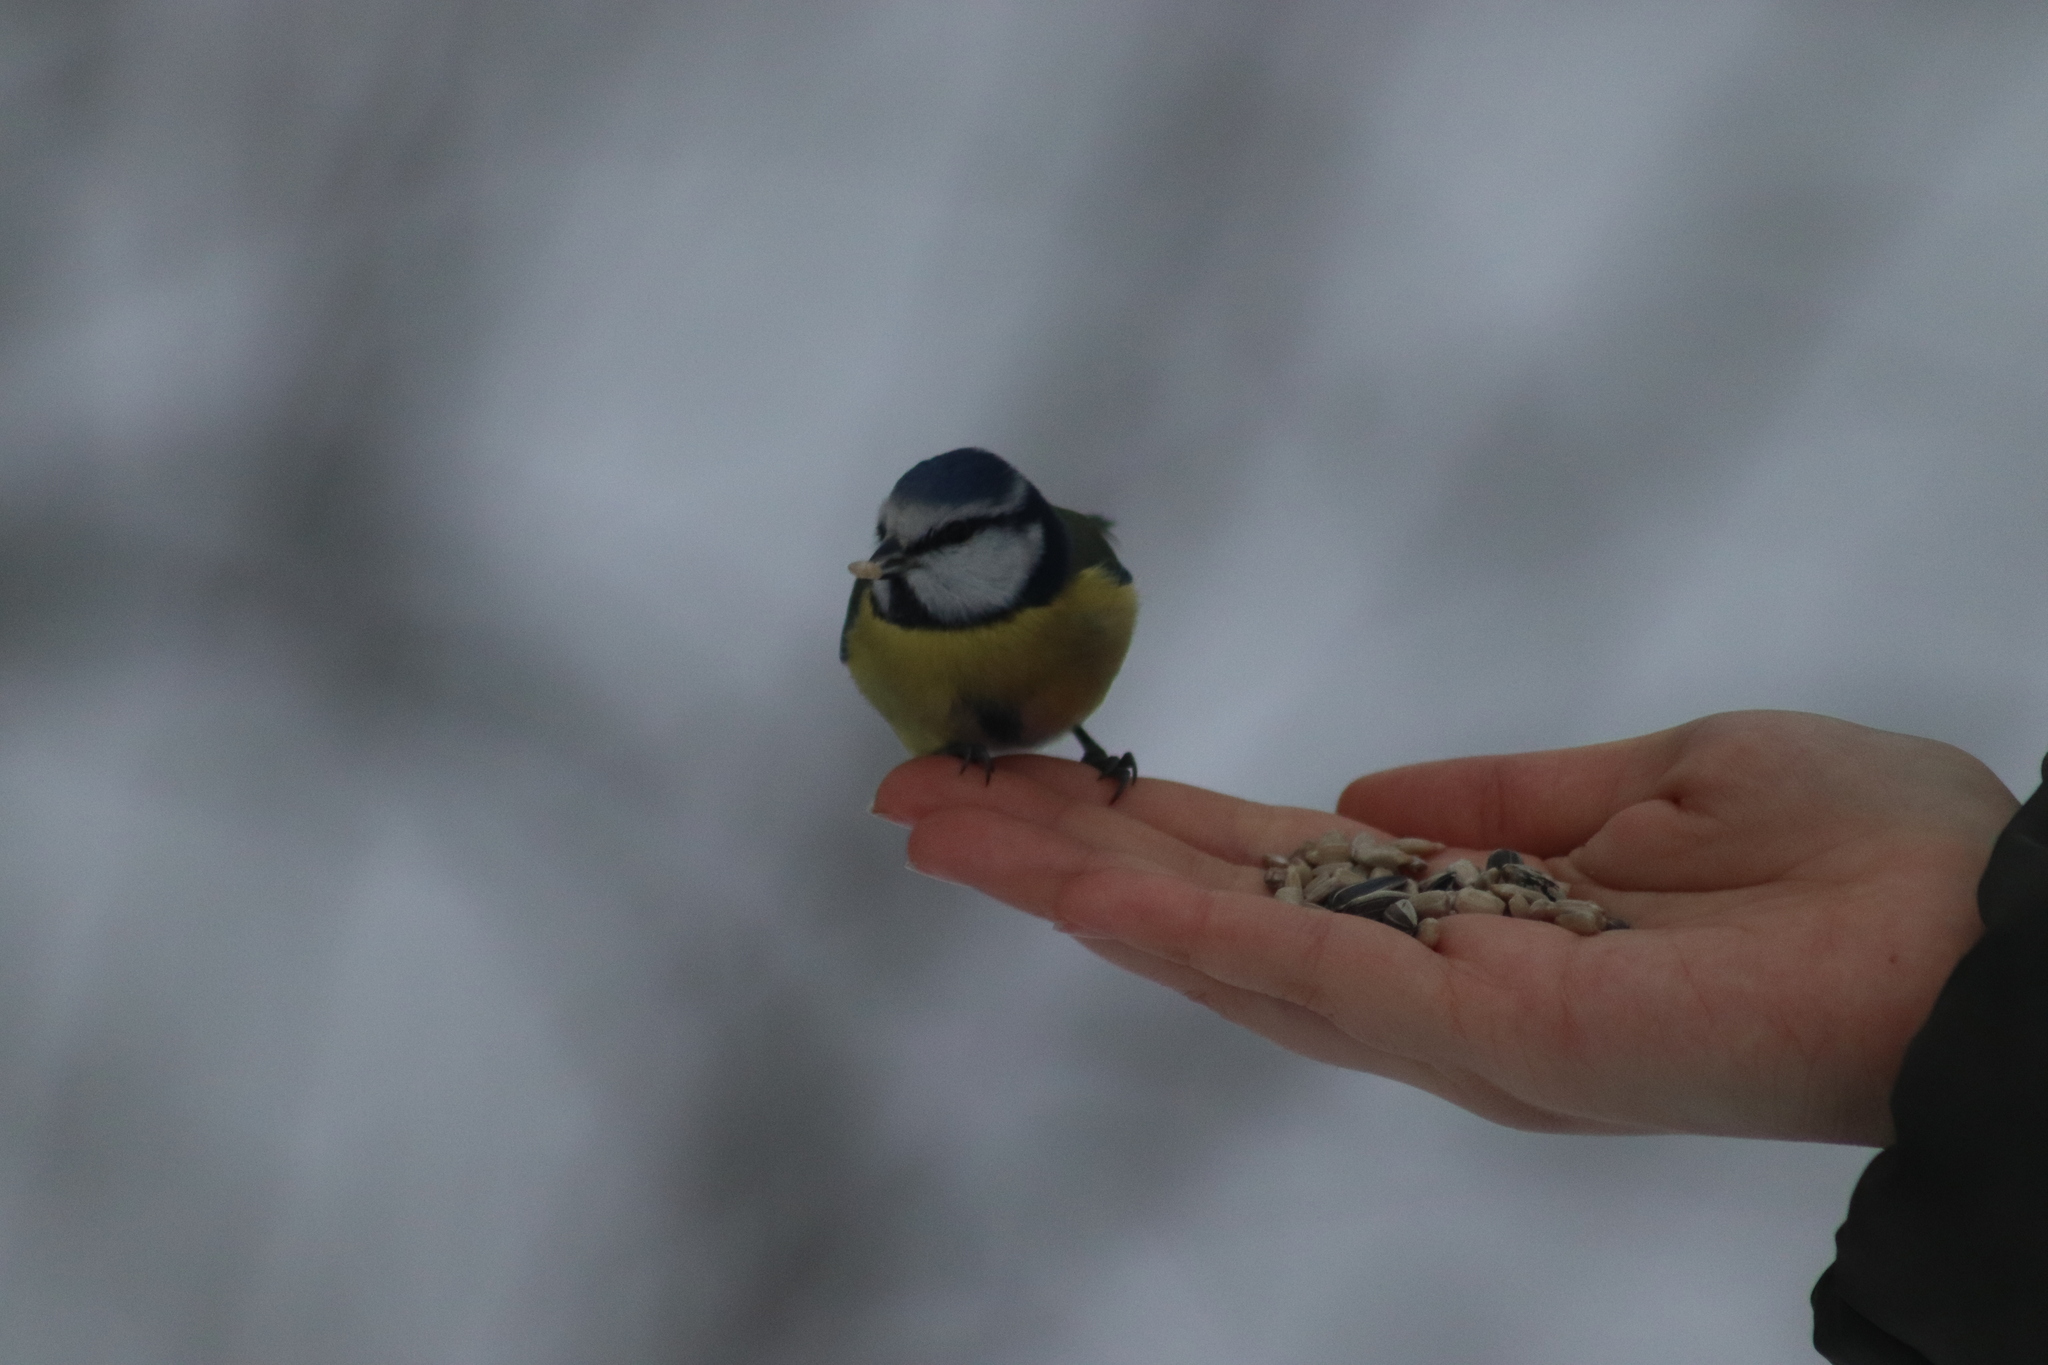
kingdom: Animalia
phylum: Chordata
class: Aves
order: Passeriformes
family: Paridae
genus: Cyanistes
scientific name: Cyanistes caeruleus
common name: Eurasian blue tit
